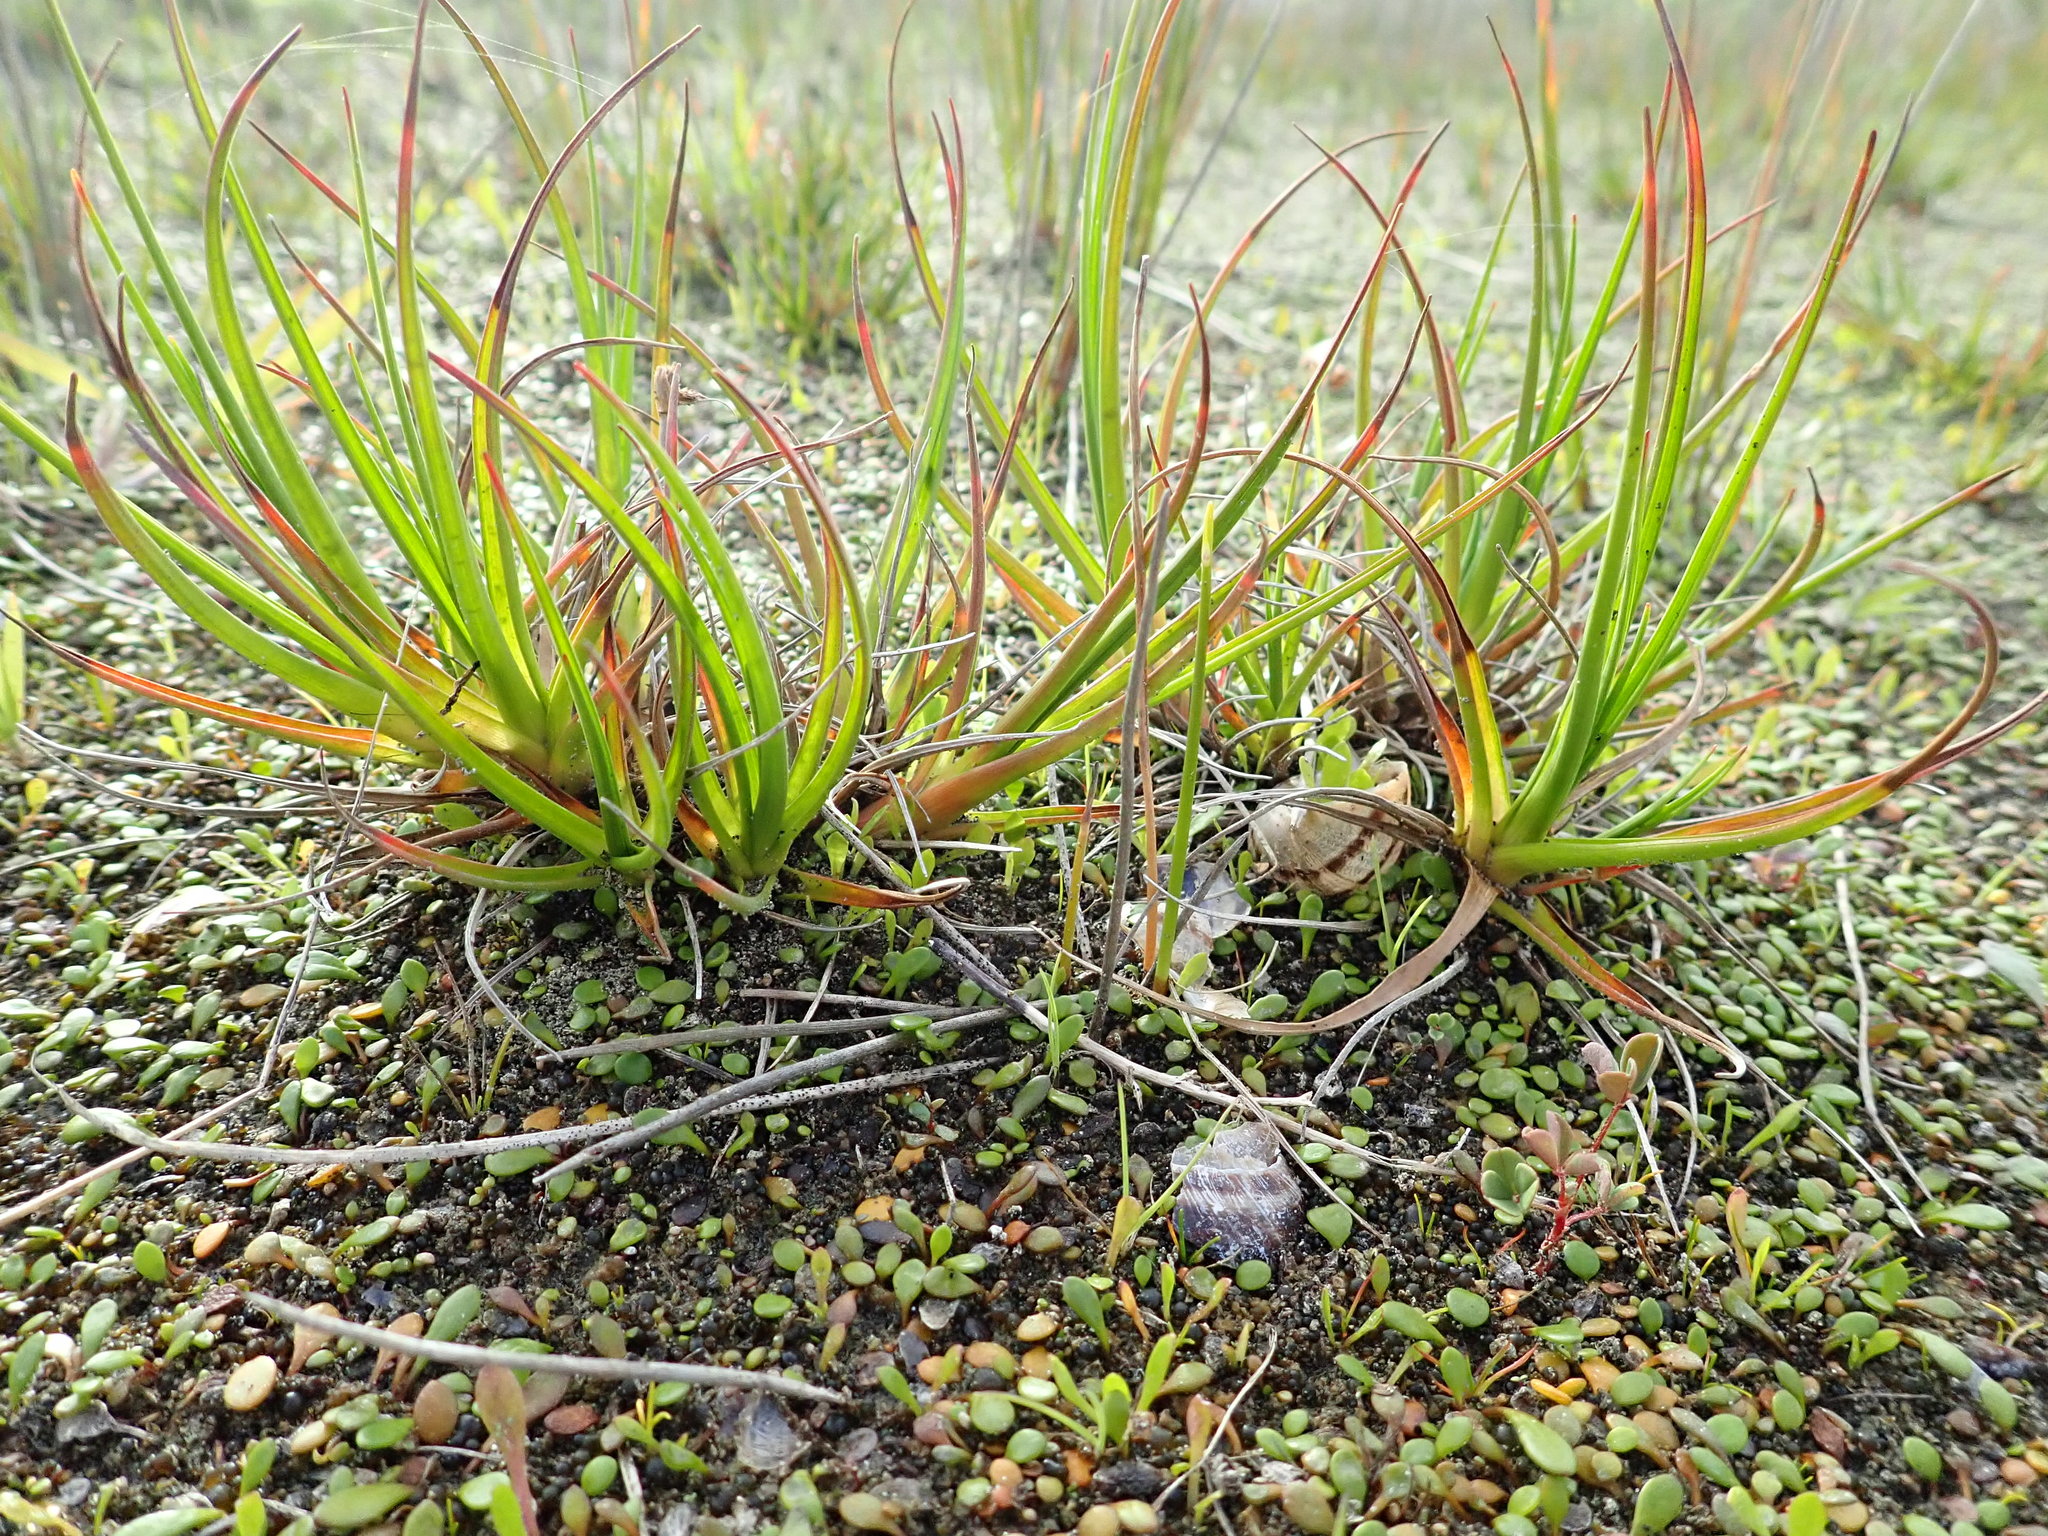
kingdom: Plantae
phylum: Tracheophyta
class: Liliopsida
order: Poales
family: Juncaceae
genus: Juncus
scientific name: Juncus caespiticius
